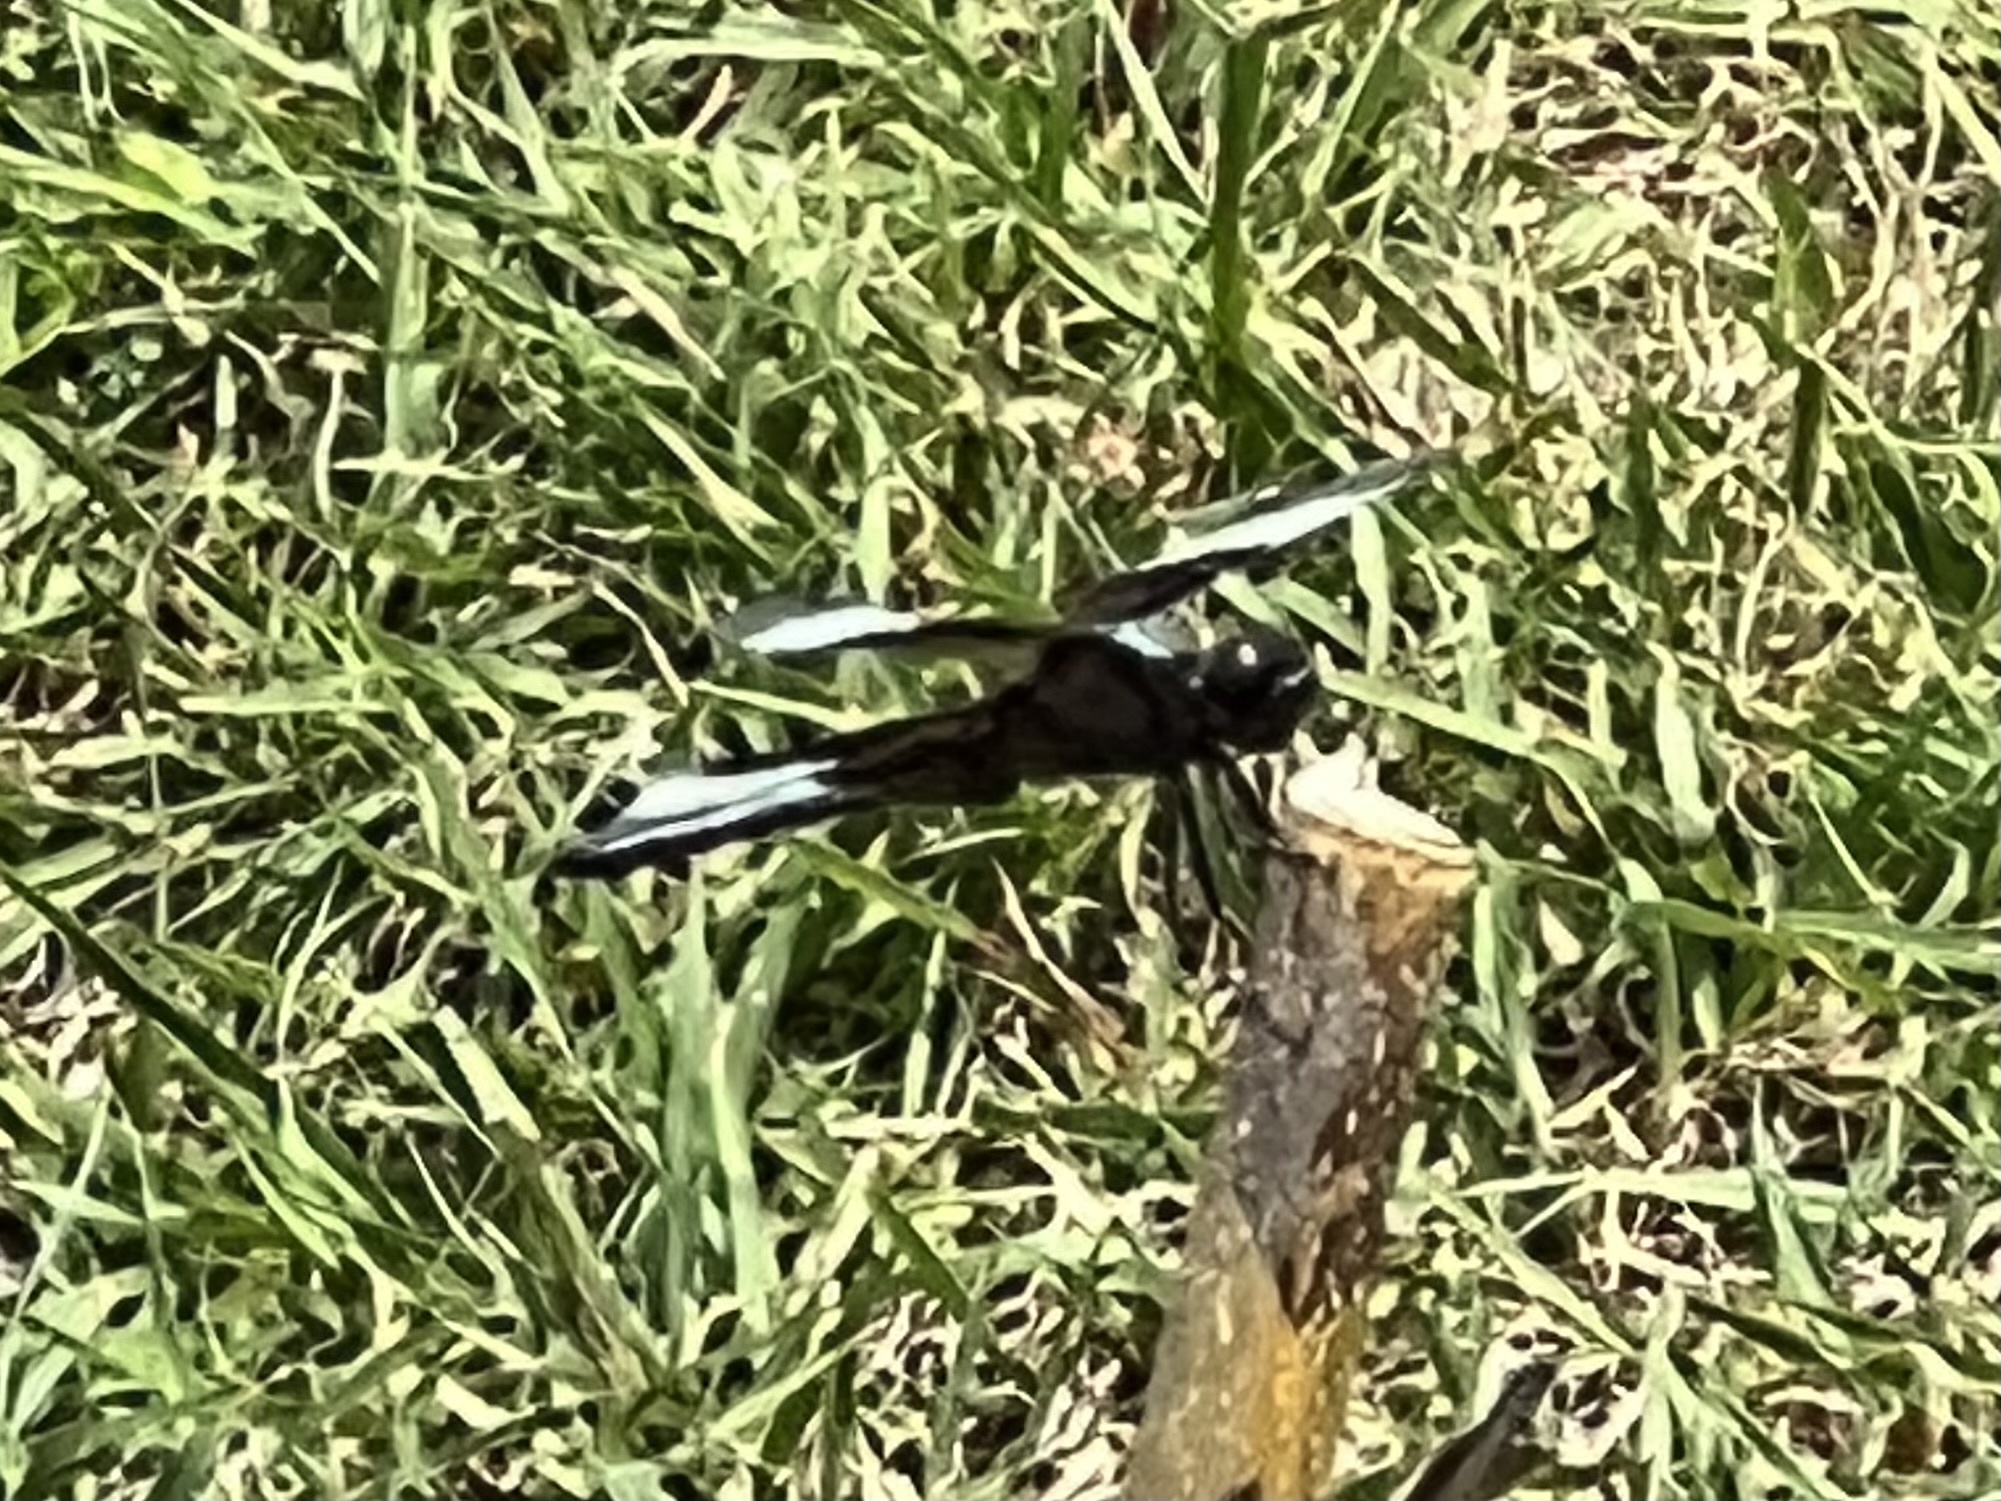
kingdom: Animalia
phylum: Arthropoda
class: Insecta
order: Odonata
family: Libellulidae
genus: Libellula
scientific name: Libellula luctuosa
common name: Widow skimmer
